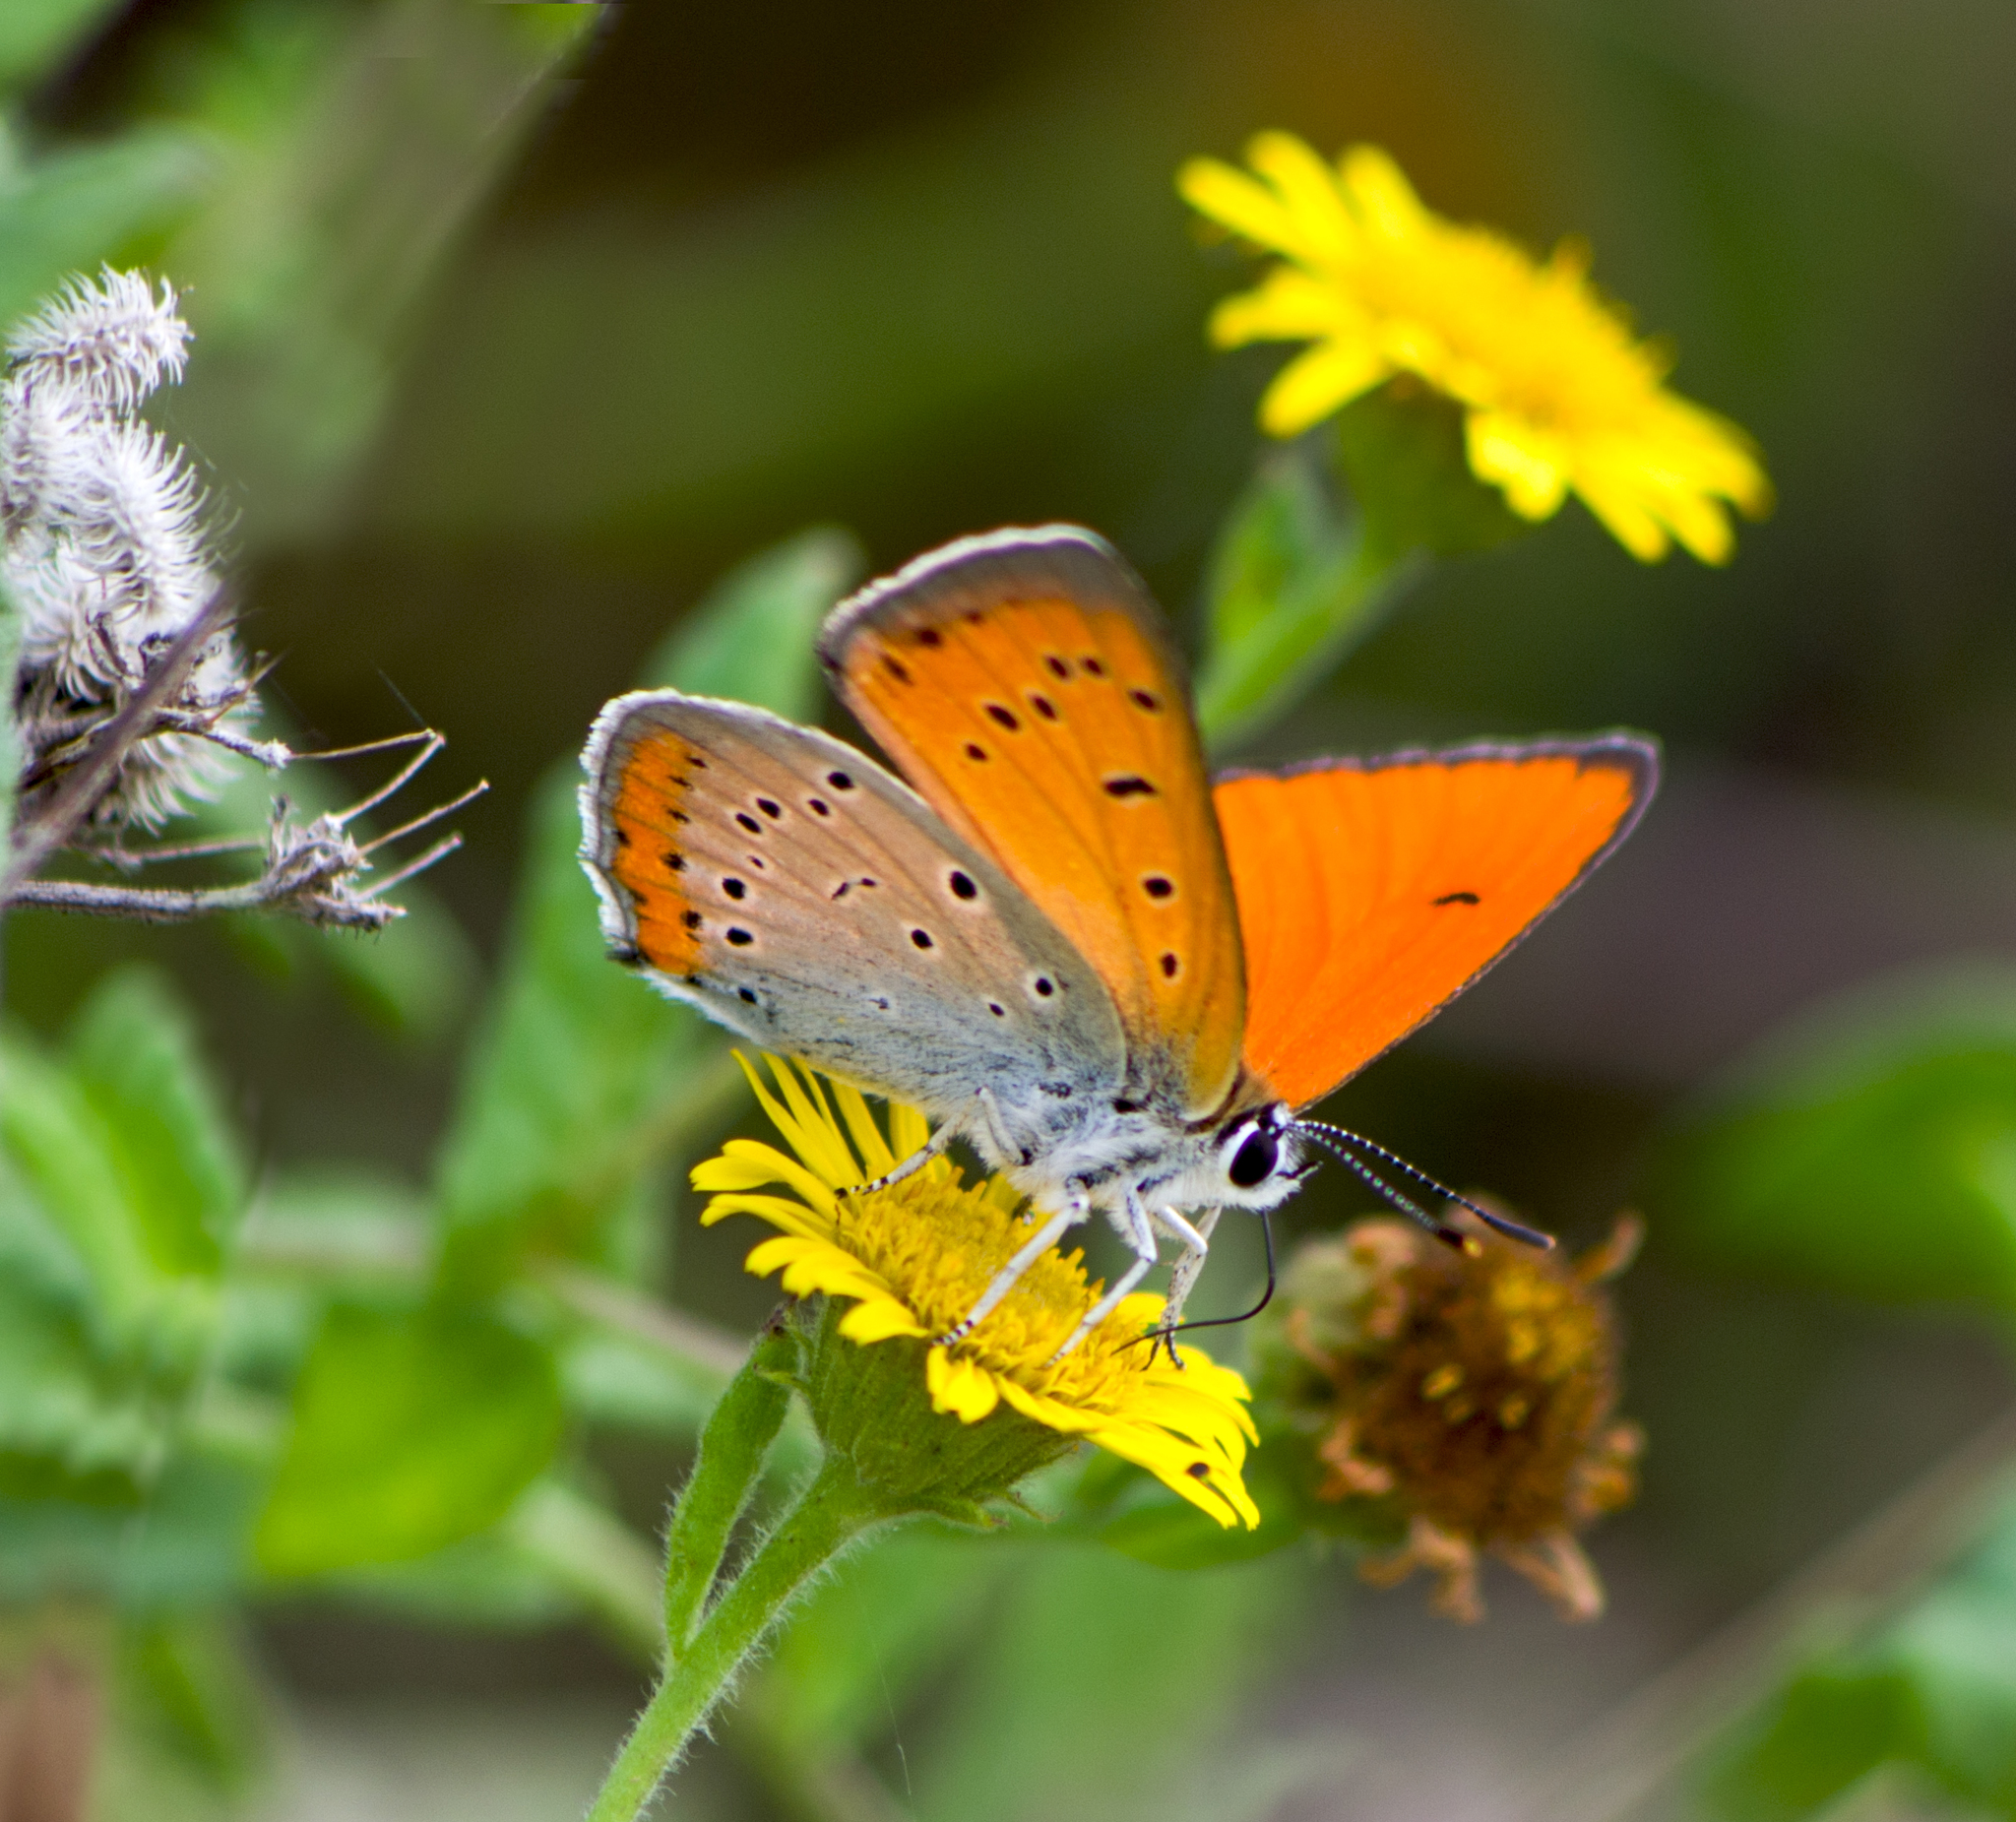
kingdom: Animalia
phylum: Arthropoda
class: Insecta
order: Lepidoptera
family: Lycaenidae
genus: Lycaena
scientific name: Lycaena dispar
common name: Large copper
